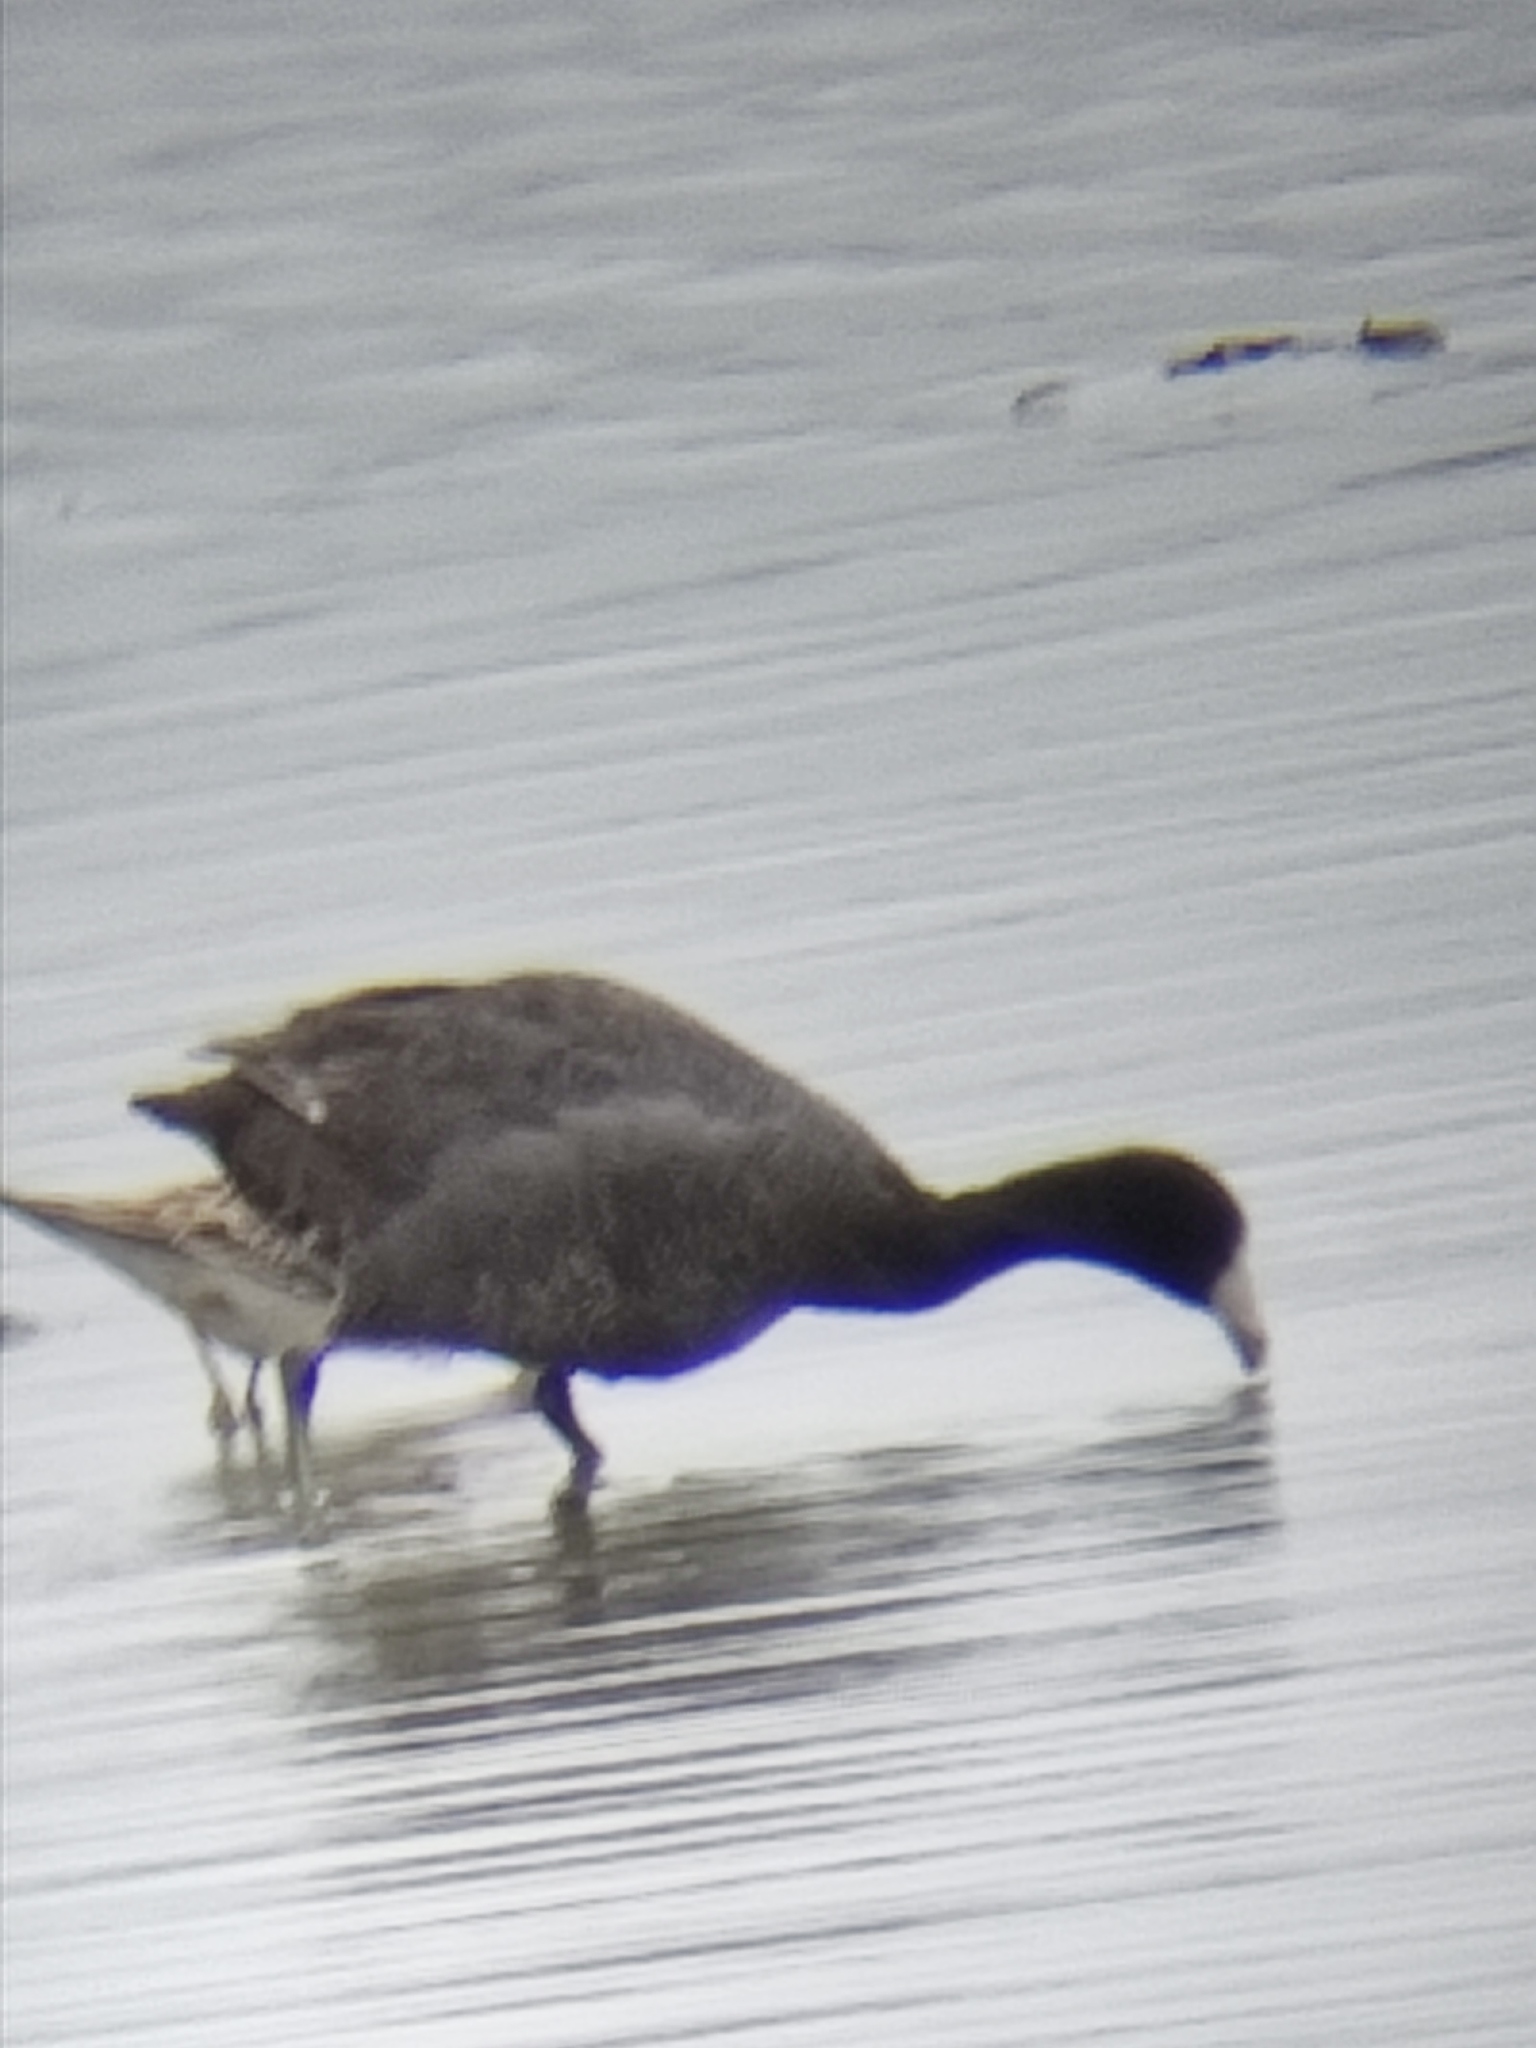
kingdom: Animalia
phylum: Chordata
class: Aves
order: Gruiformes
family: Rallidae
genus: Fulica
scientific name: Fulica americana
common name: American coot
